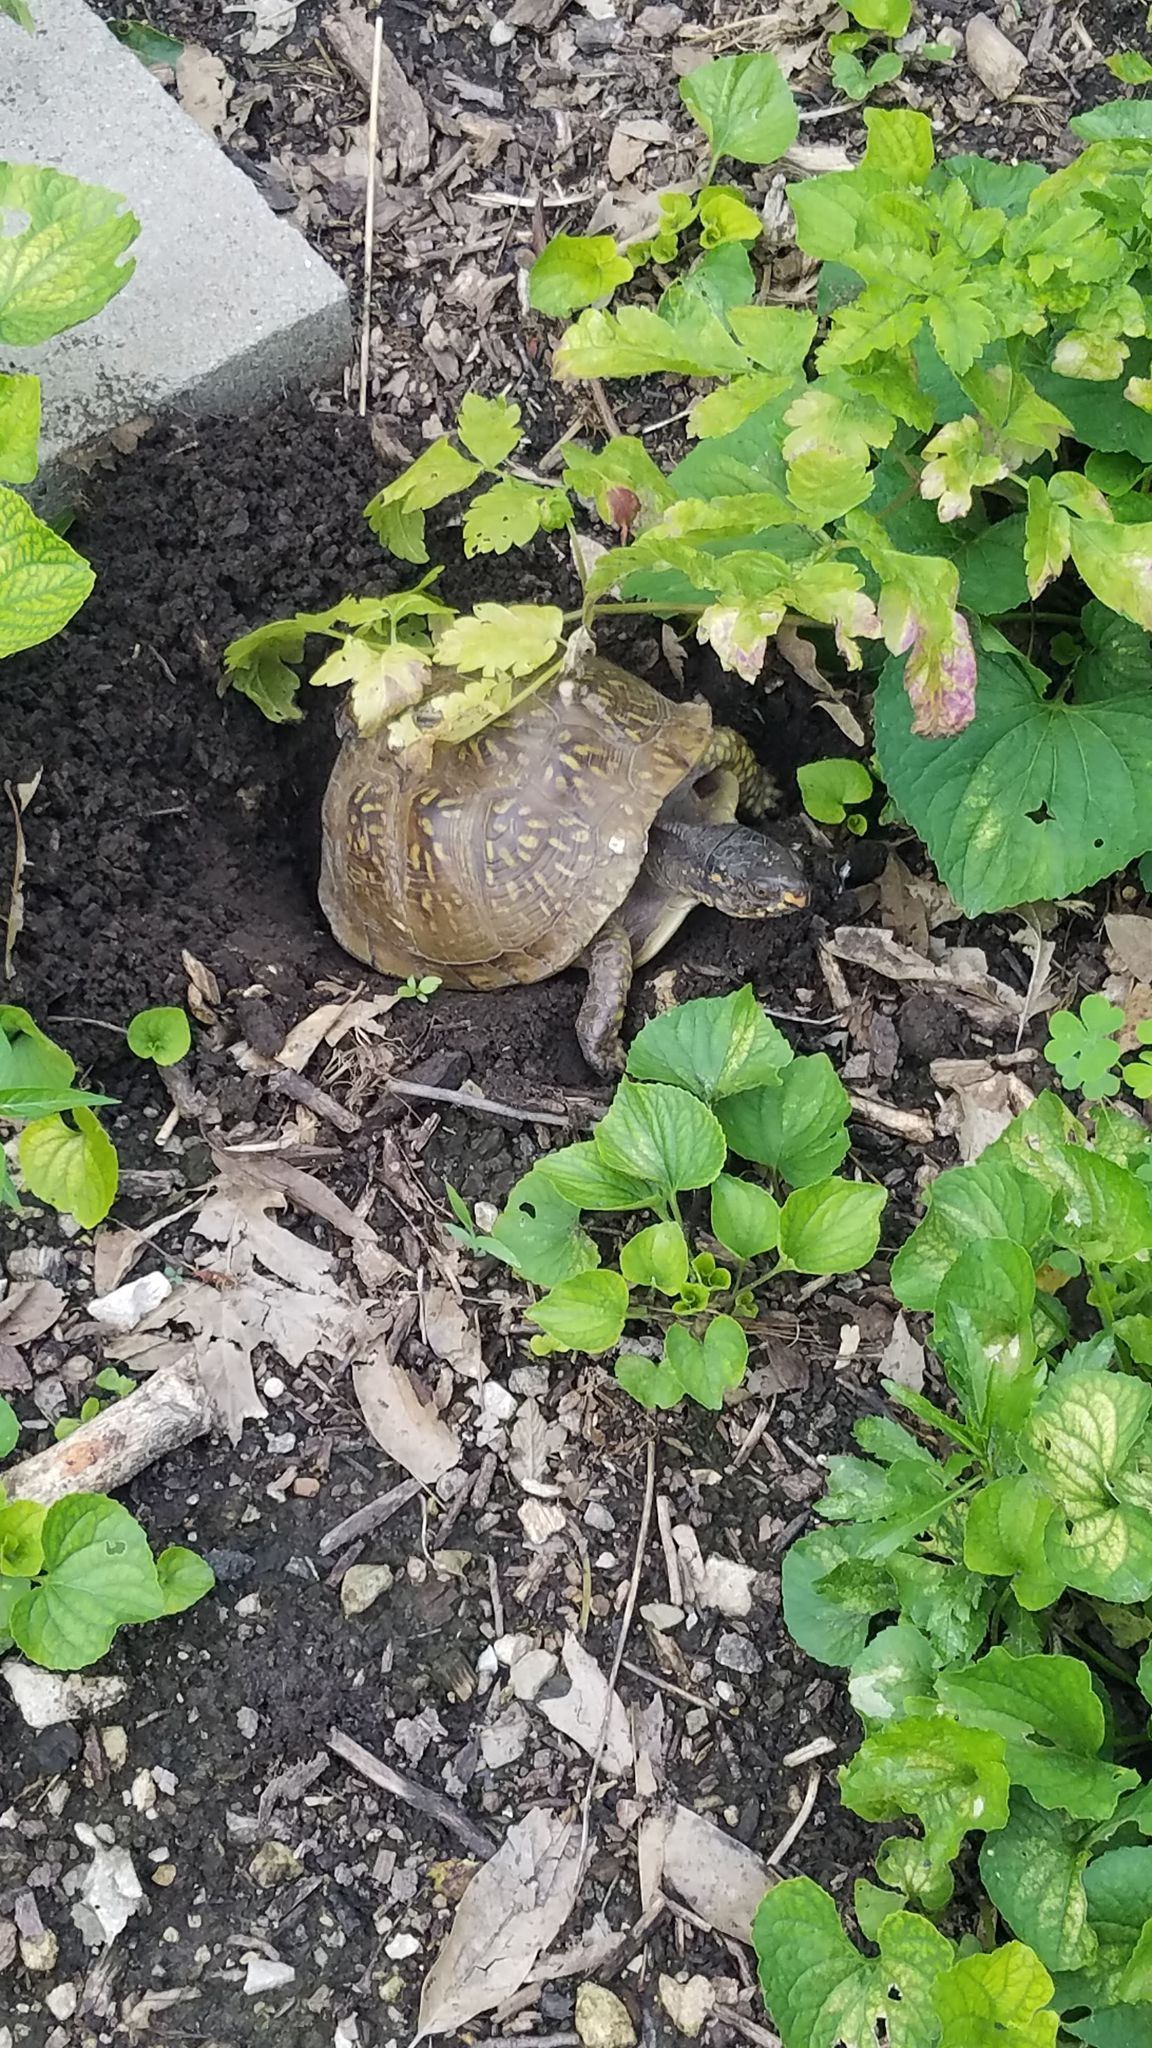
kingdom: Animalia
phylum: Chordata
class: Testudines
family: Emydidae
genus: Terrapene
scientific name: Terrapene carolina
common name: Common box turtle
